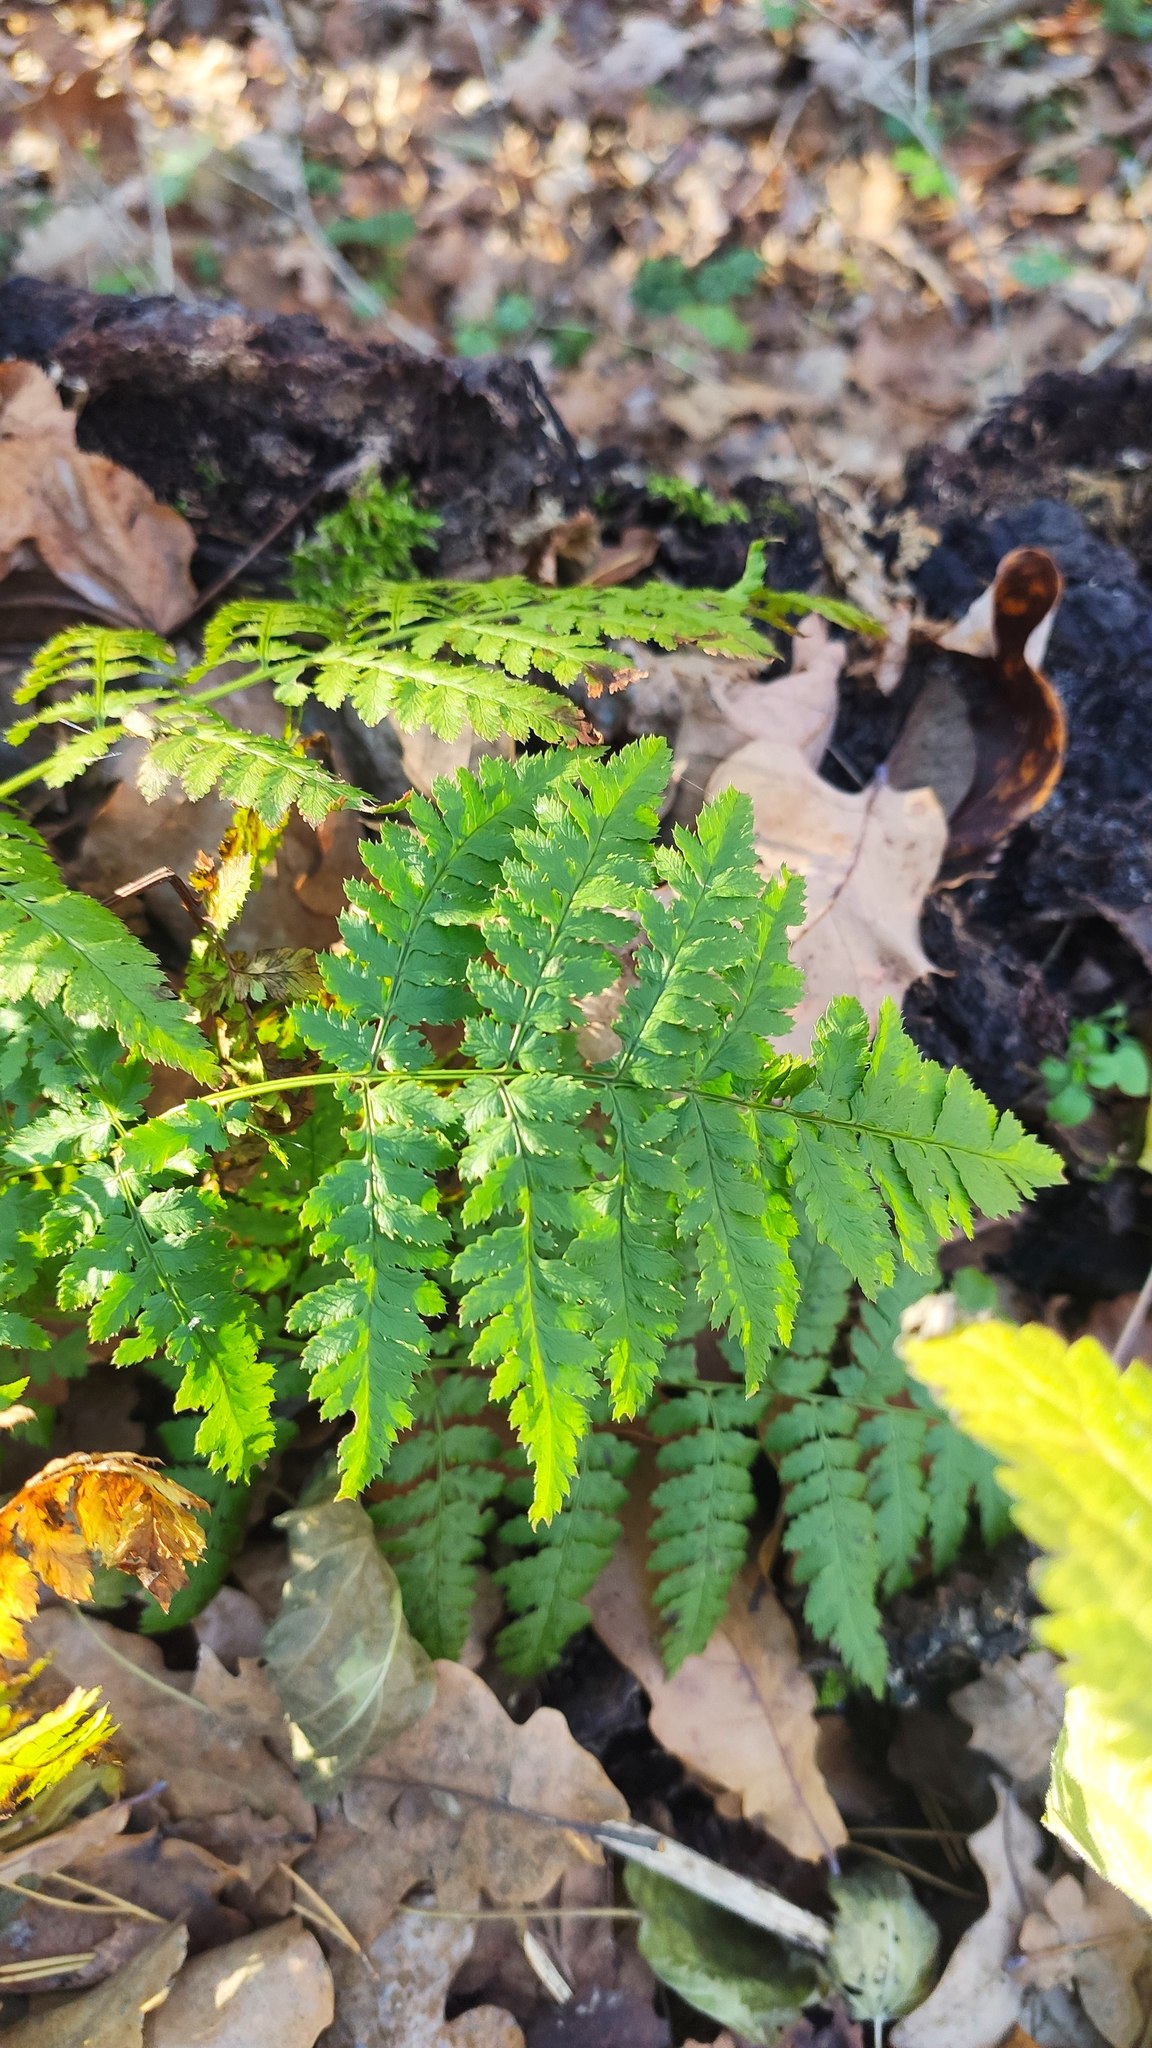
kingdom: Plantae
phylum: Tracheophyta
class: Polypodiopsida
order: Polypodiales
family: Dryopteridaceae
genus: Dryopteris
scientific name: Dryopteris carthusiana
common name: Narrow buckler-fern
